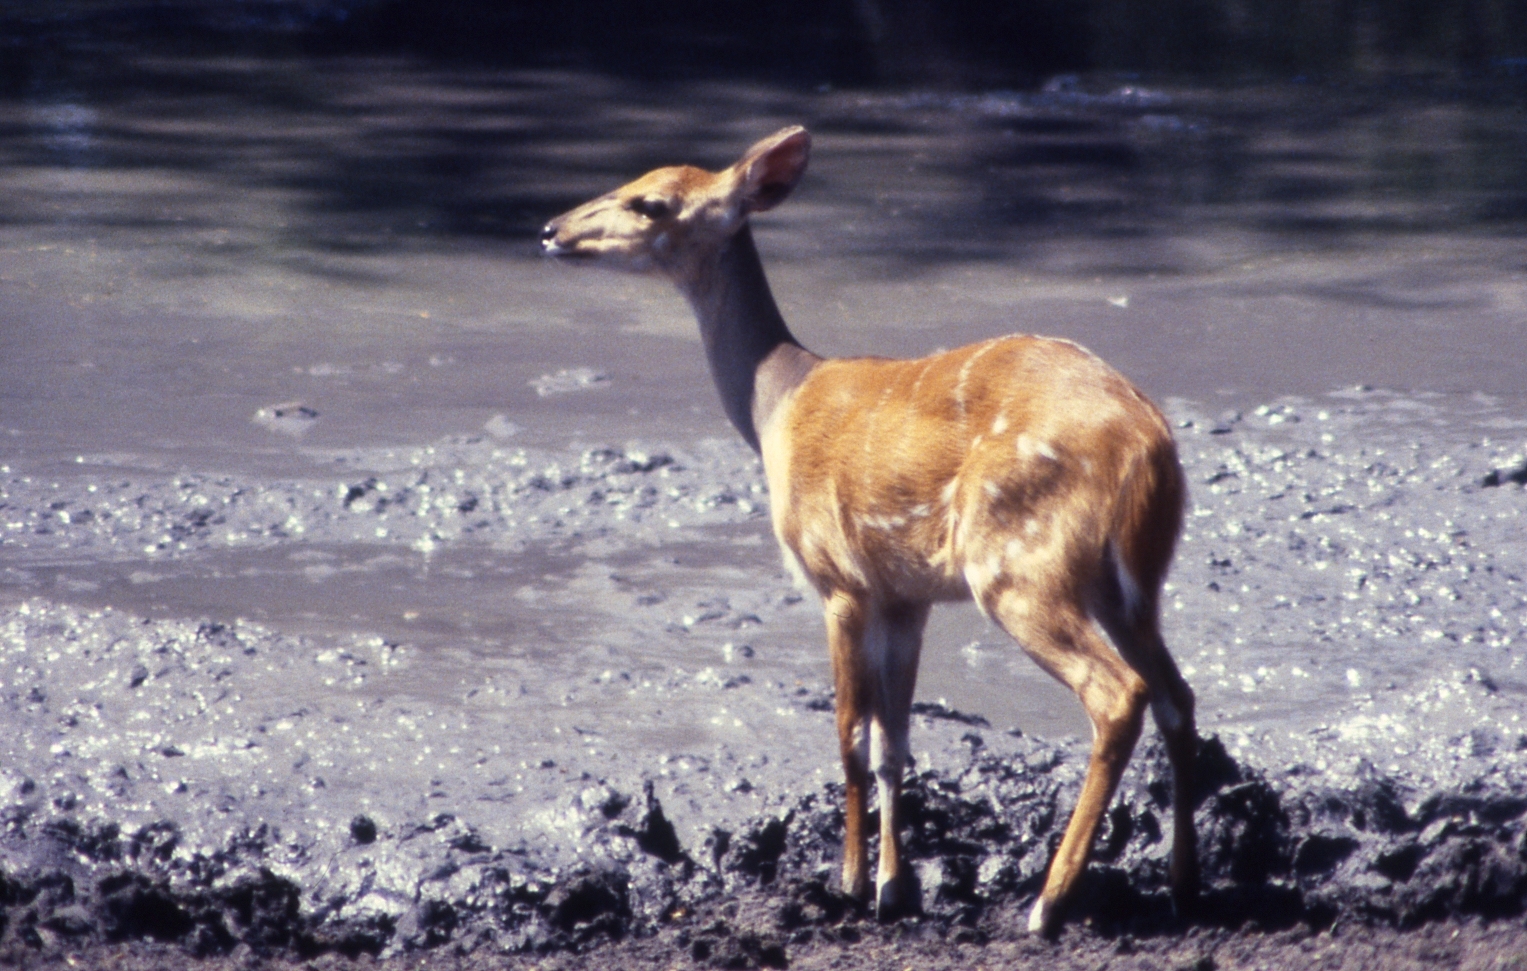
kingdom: Animalia
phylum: Chordata
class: Mammalia
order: Artiodactyla
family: Bovidae
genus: Tragelaphus
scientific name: Tragelaphus scriptus
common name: Bushbuck
